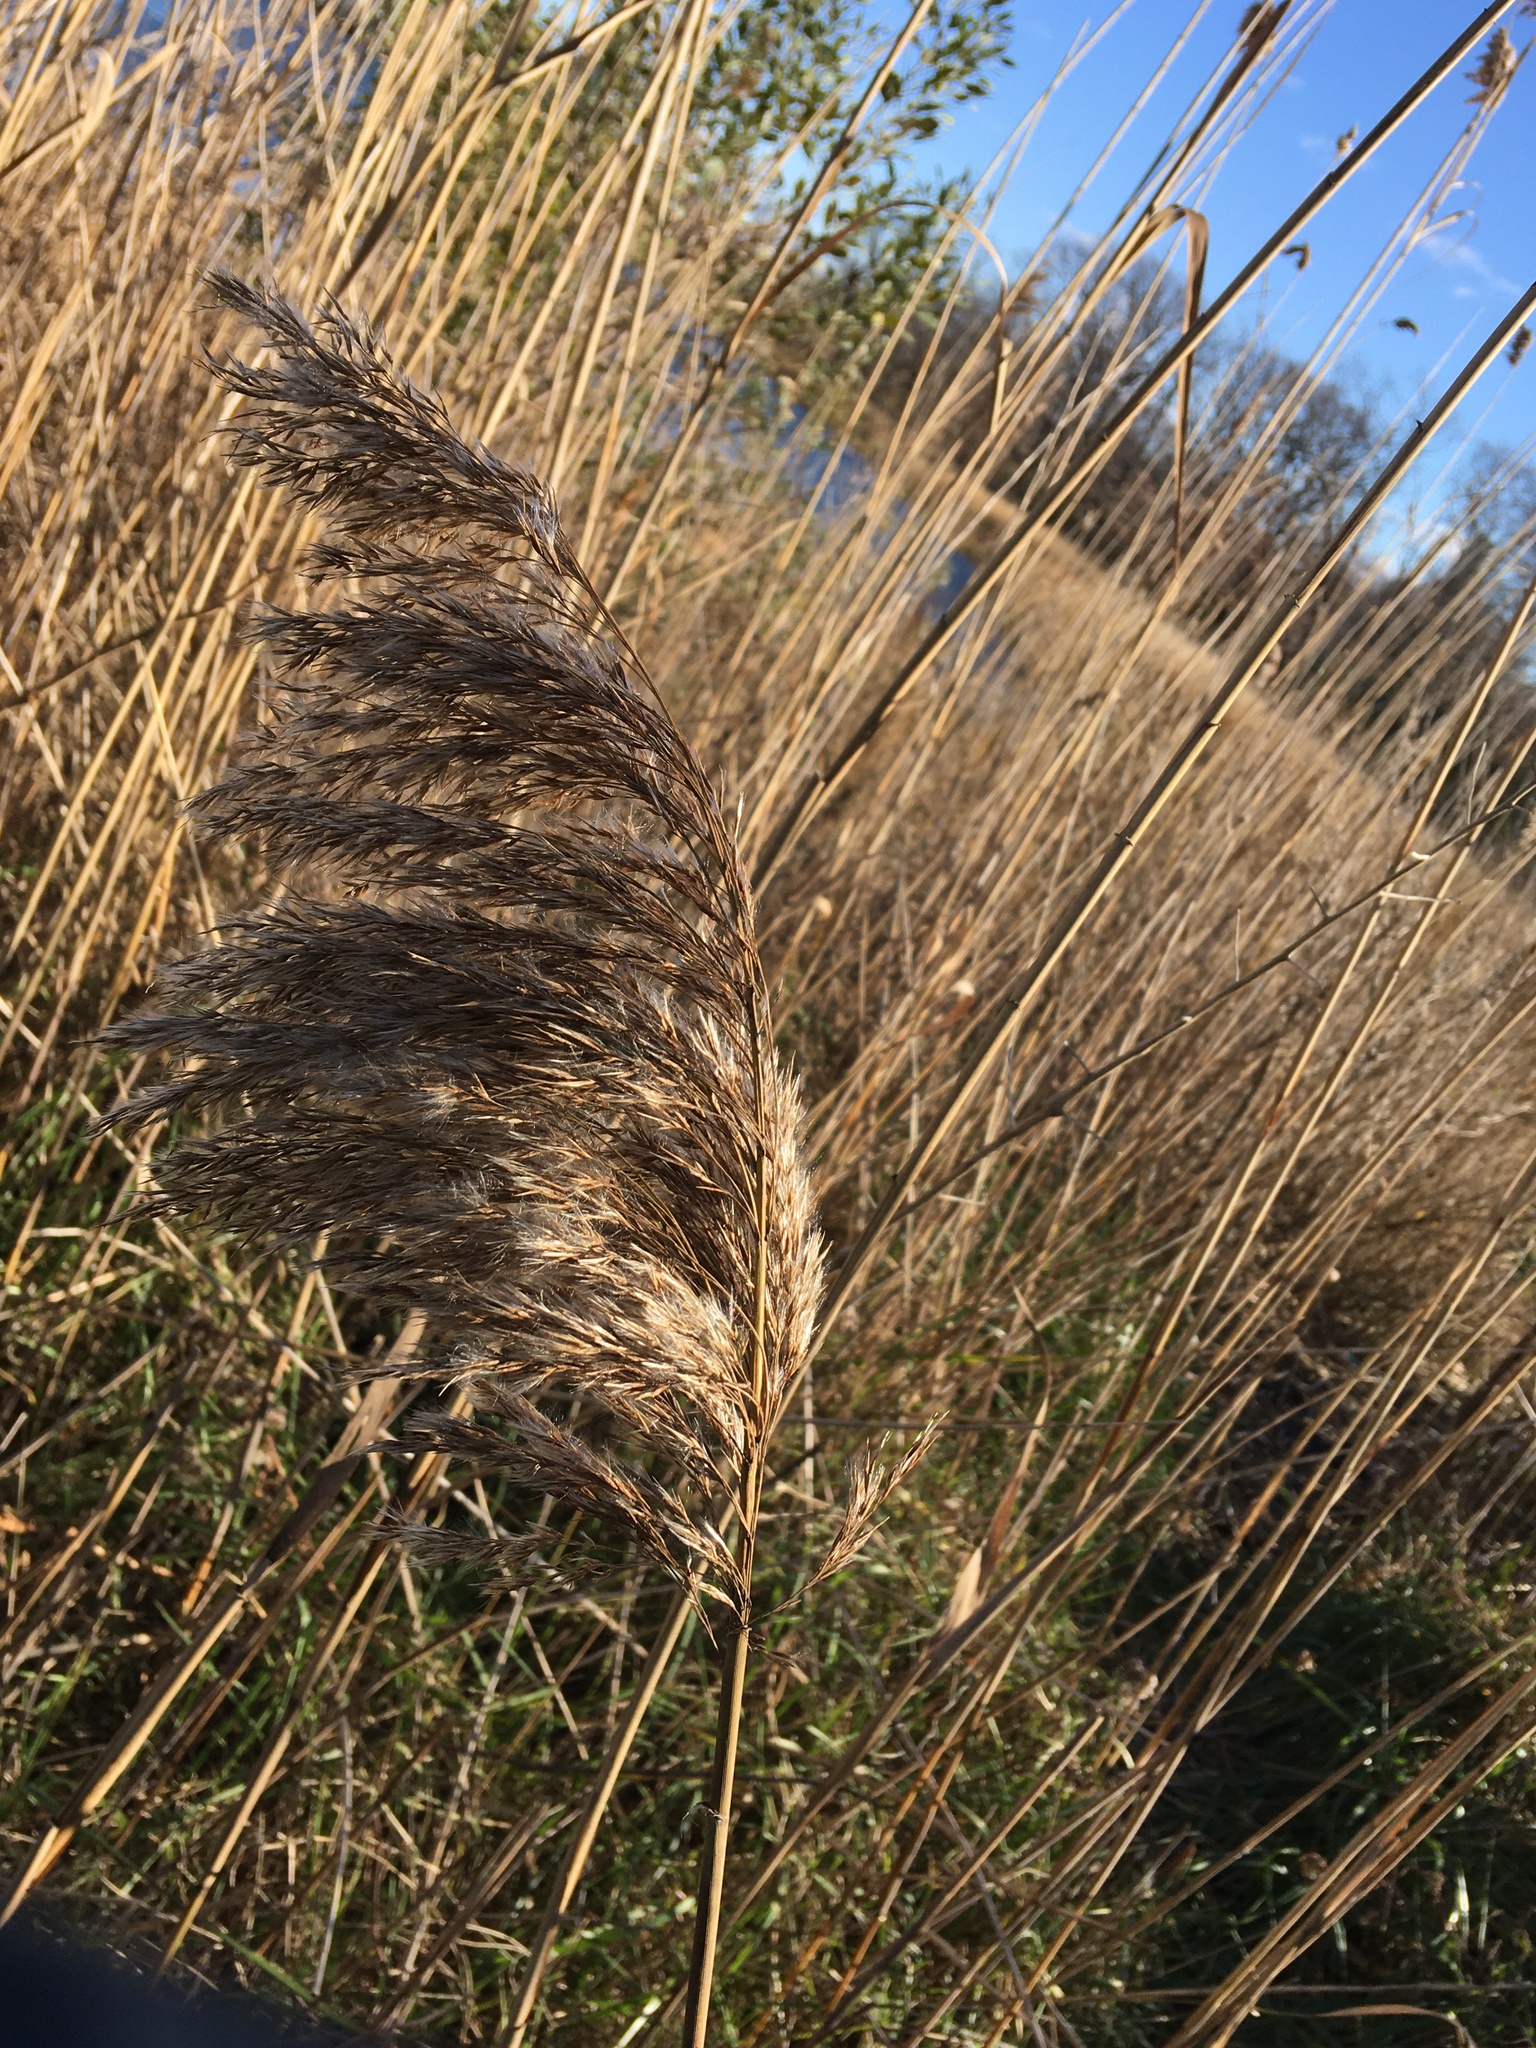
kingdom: Plantae
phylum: Tracheophyta
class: Liliopsida
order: Poales
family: Poaceae
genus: Phragmites
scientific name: Phragmites australis
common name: Common reed
